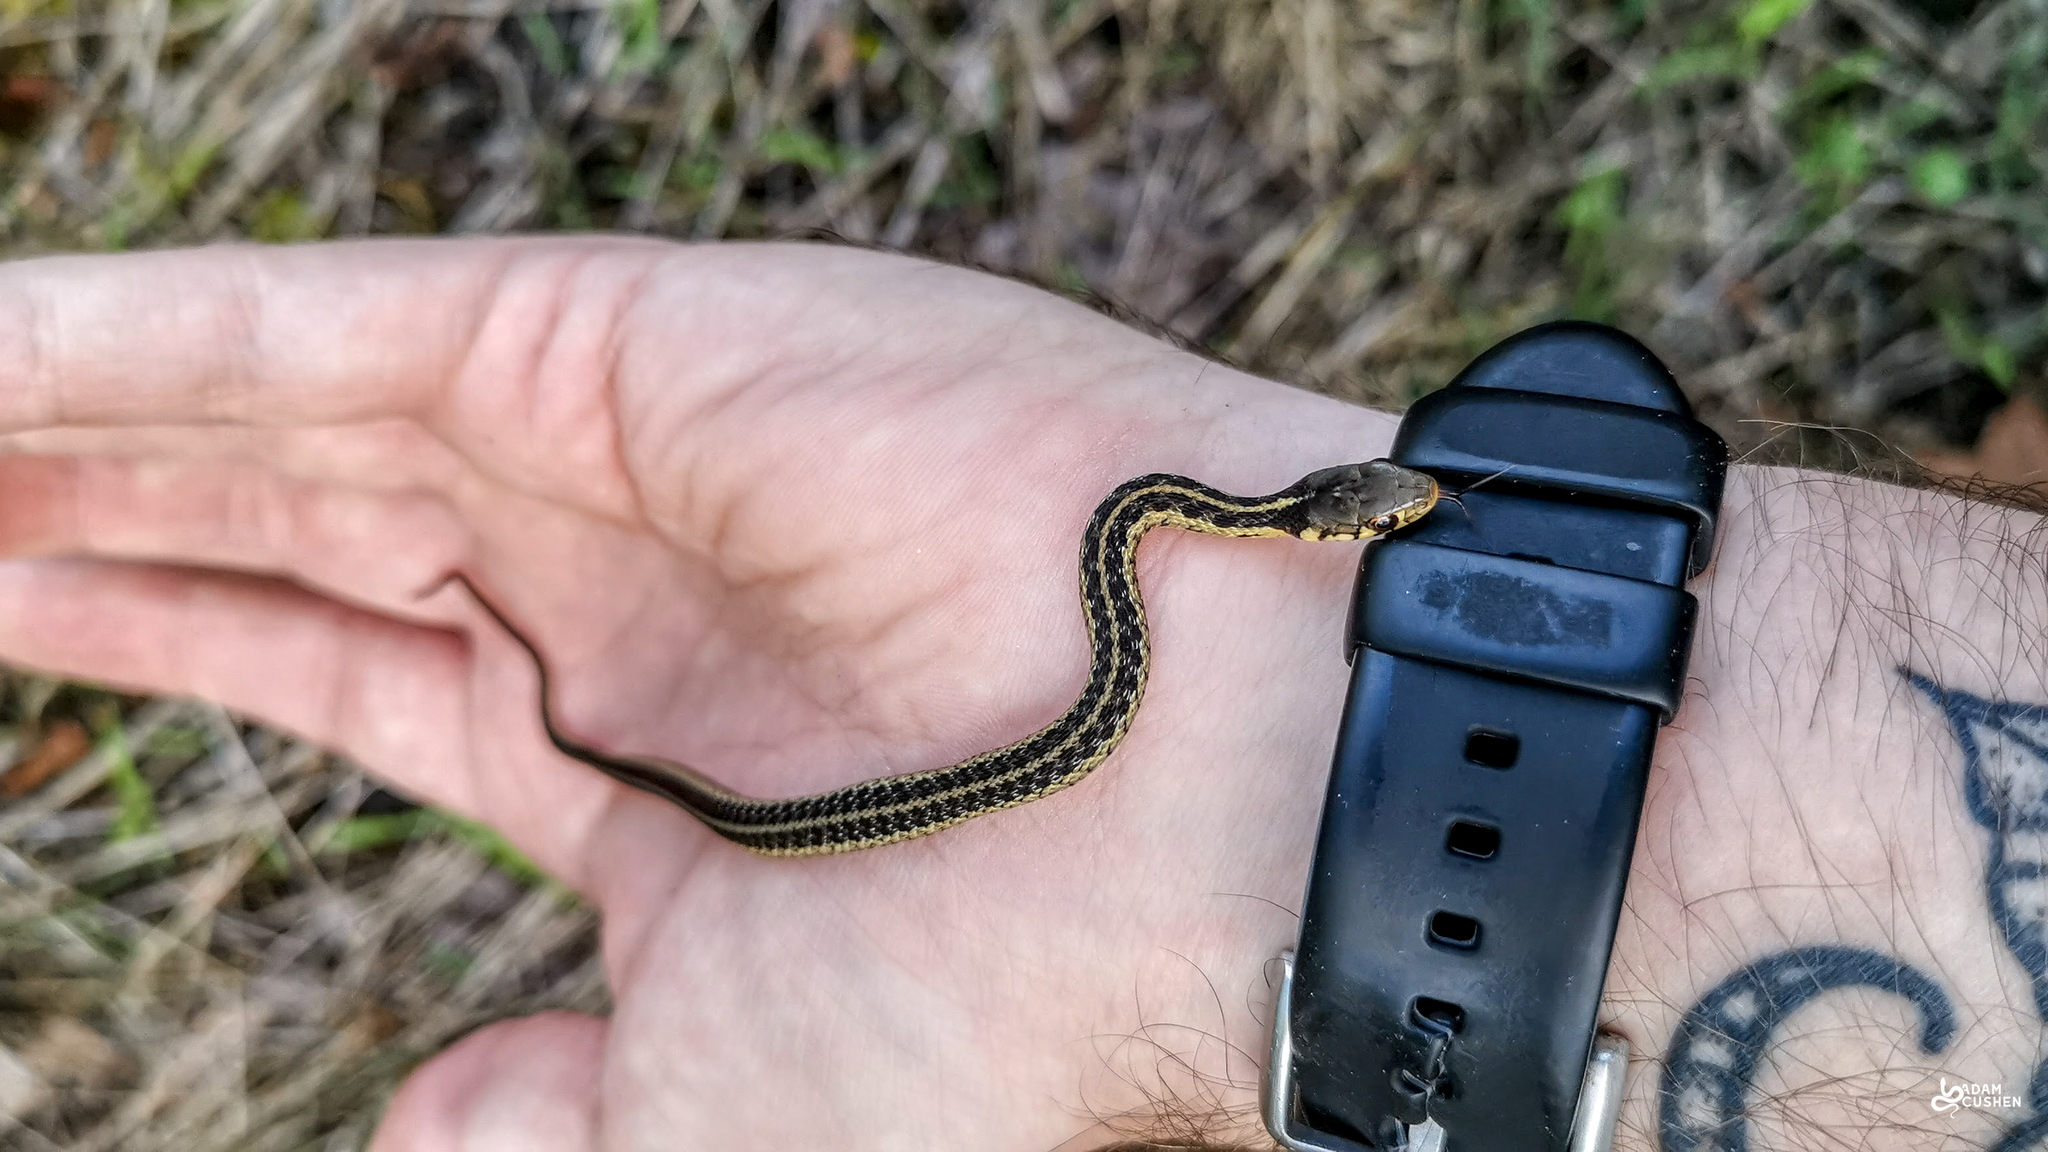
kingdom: Animalia
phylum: Chordata
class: Squamata
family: Colubridae
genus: Thamnophis
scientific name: Thamnophis sirtalis
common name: Common garter snake
